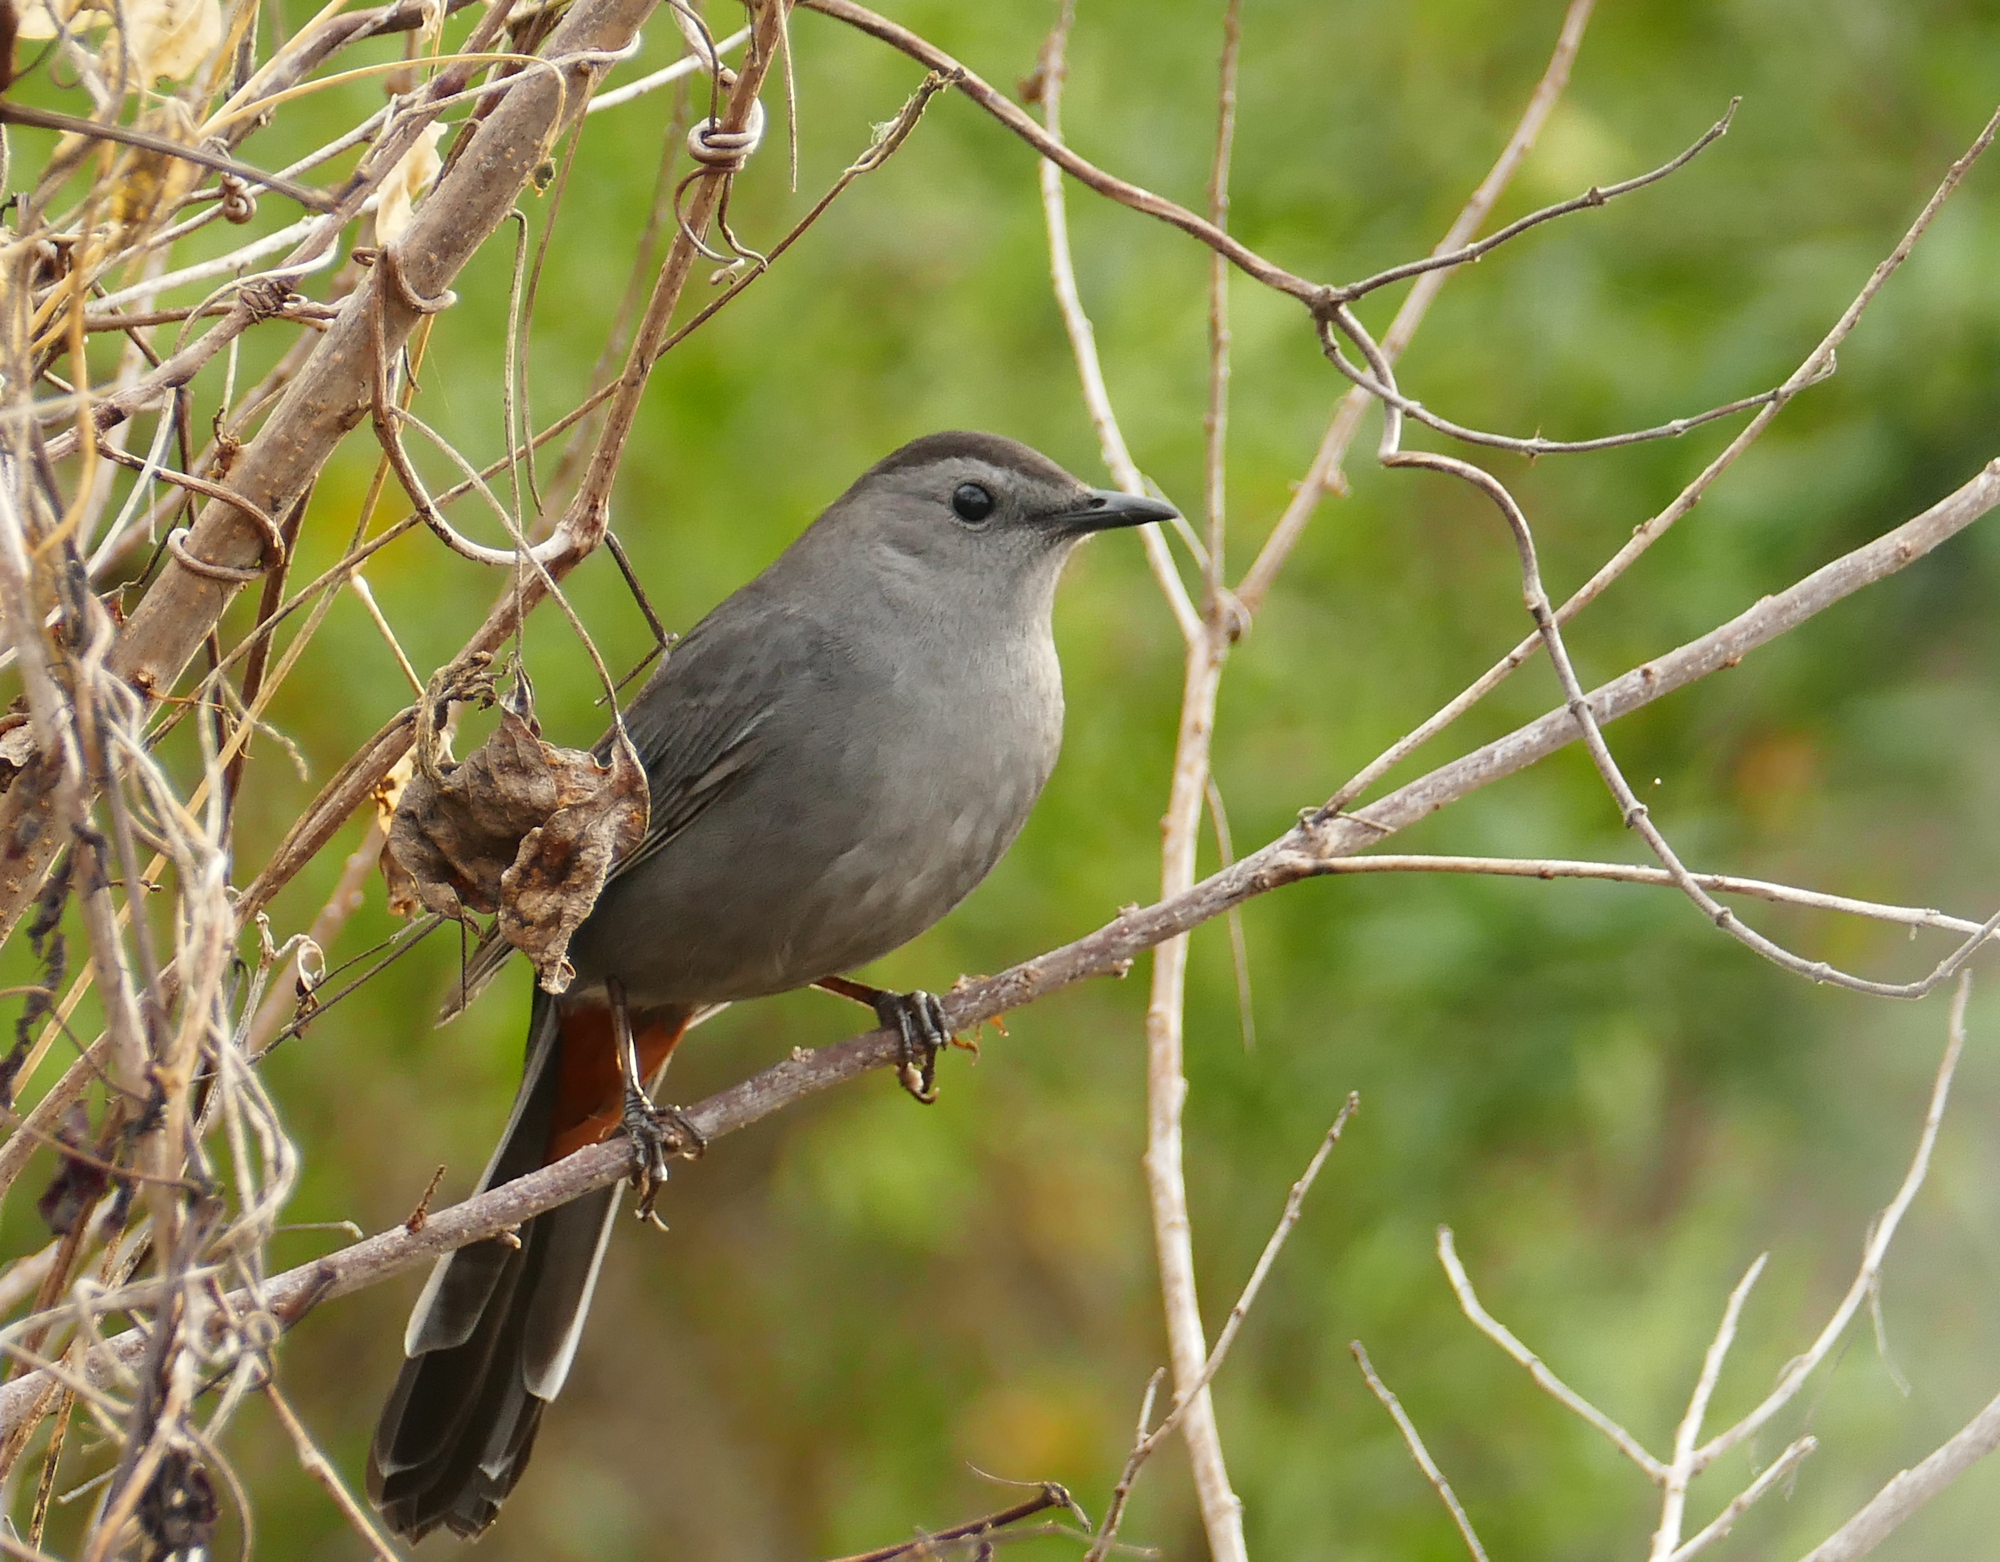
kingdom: Animalia
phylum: Chordata
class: Aves
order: Passeriformes
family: Mimidae
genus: Dumetella
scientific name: Dumetella carolinensis
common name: Gray catbird
